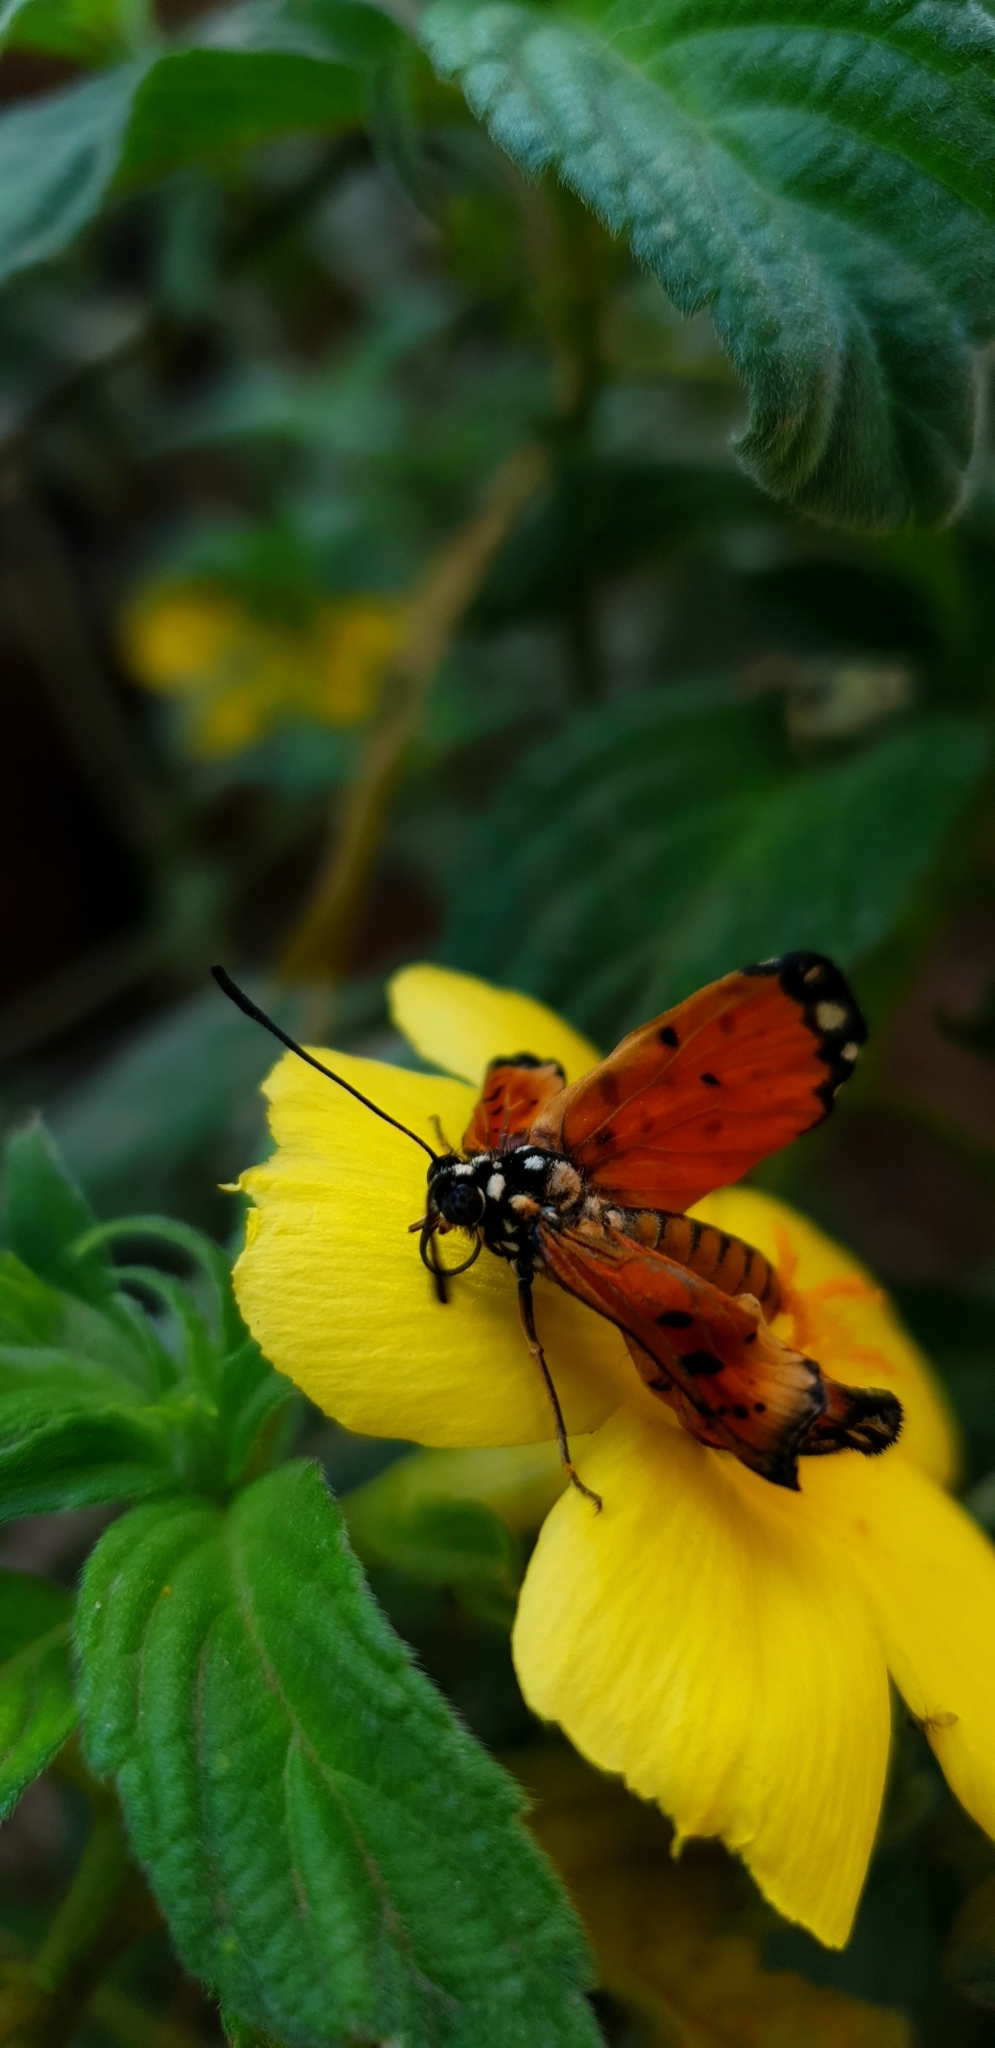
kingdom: Animalia
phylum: Arthropoda
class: Insecta
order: Lepidoptera
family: Nymphalidae
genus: Acraea
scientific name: Acraea terpsicore
